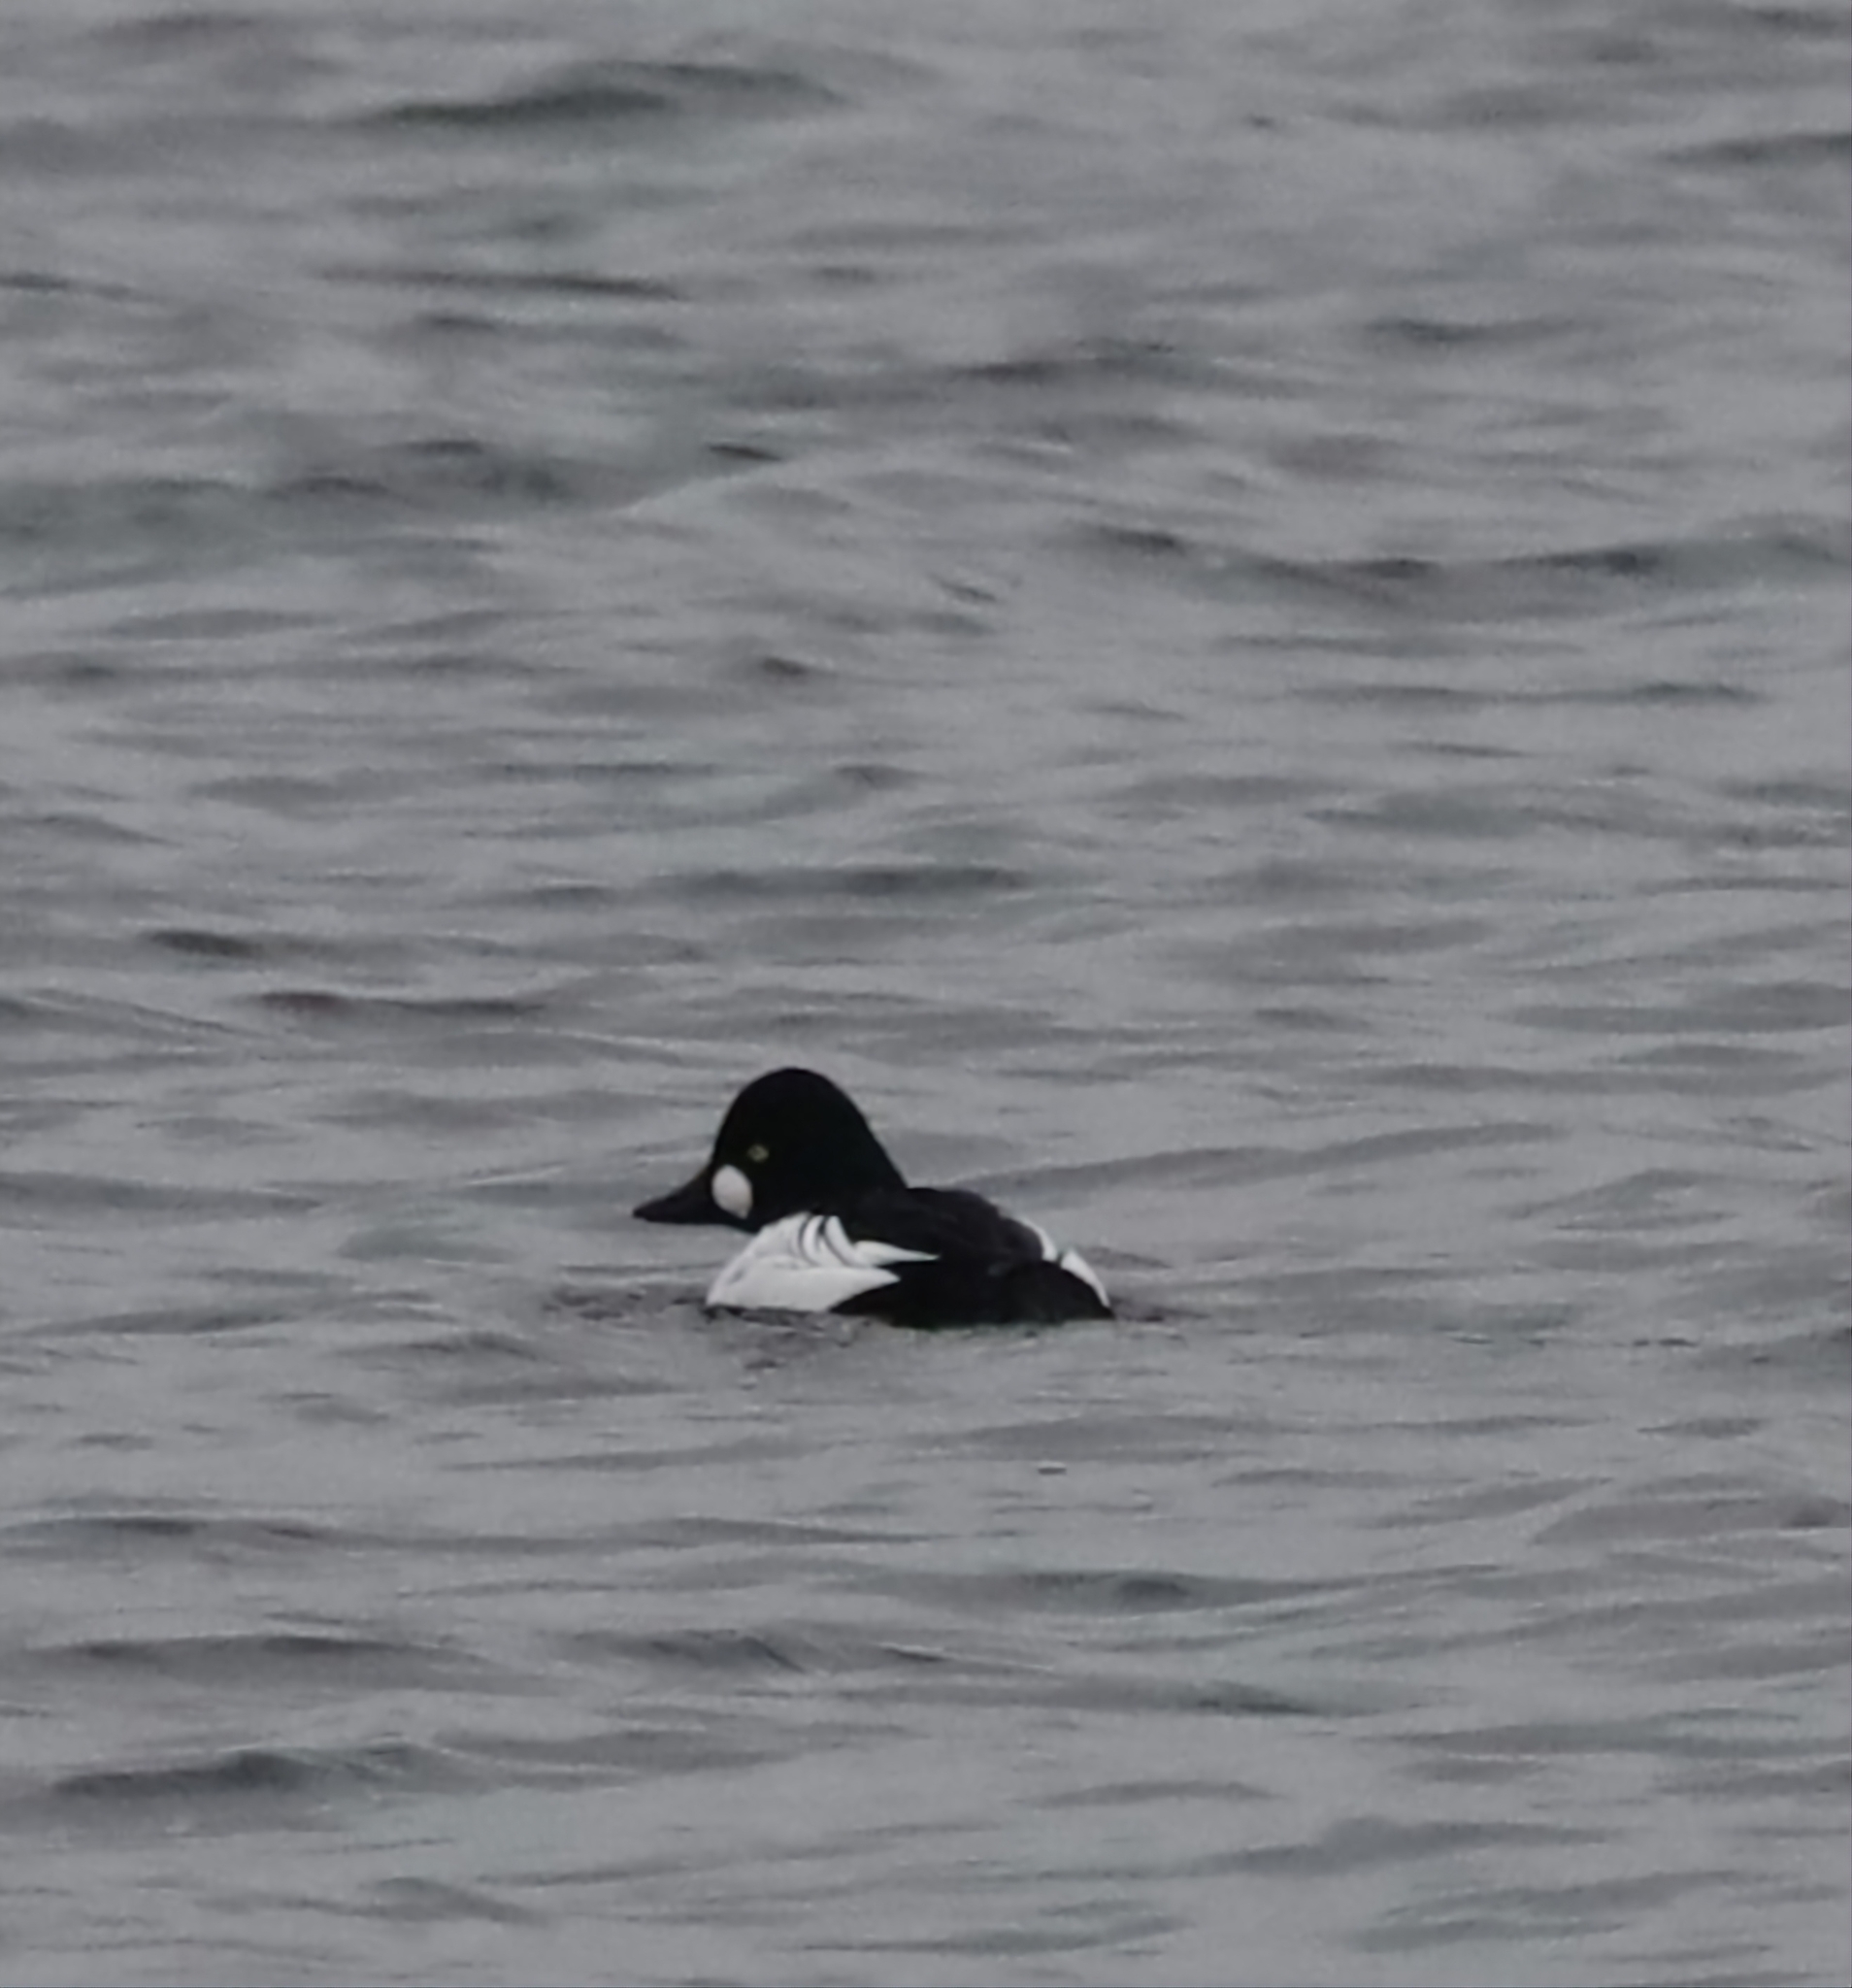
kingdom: Animalia
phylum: Chordata
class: Aves
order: Anseriformes
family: Anatidae
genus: Bucephala
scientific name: Bucephala clangula
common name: Common goldeneye
